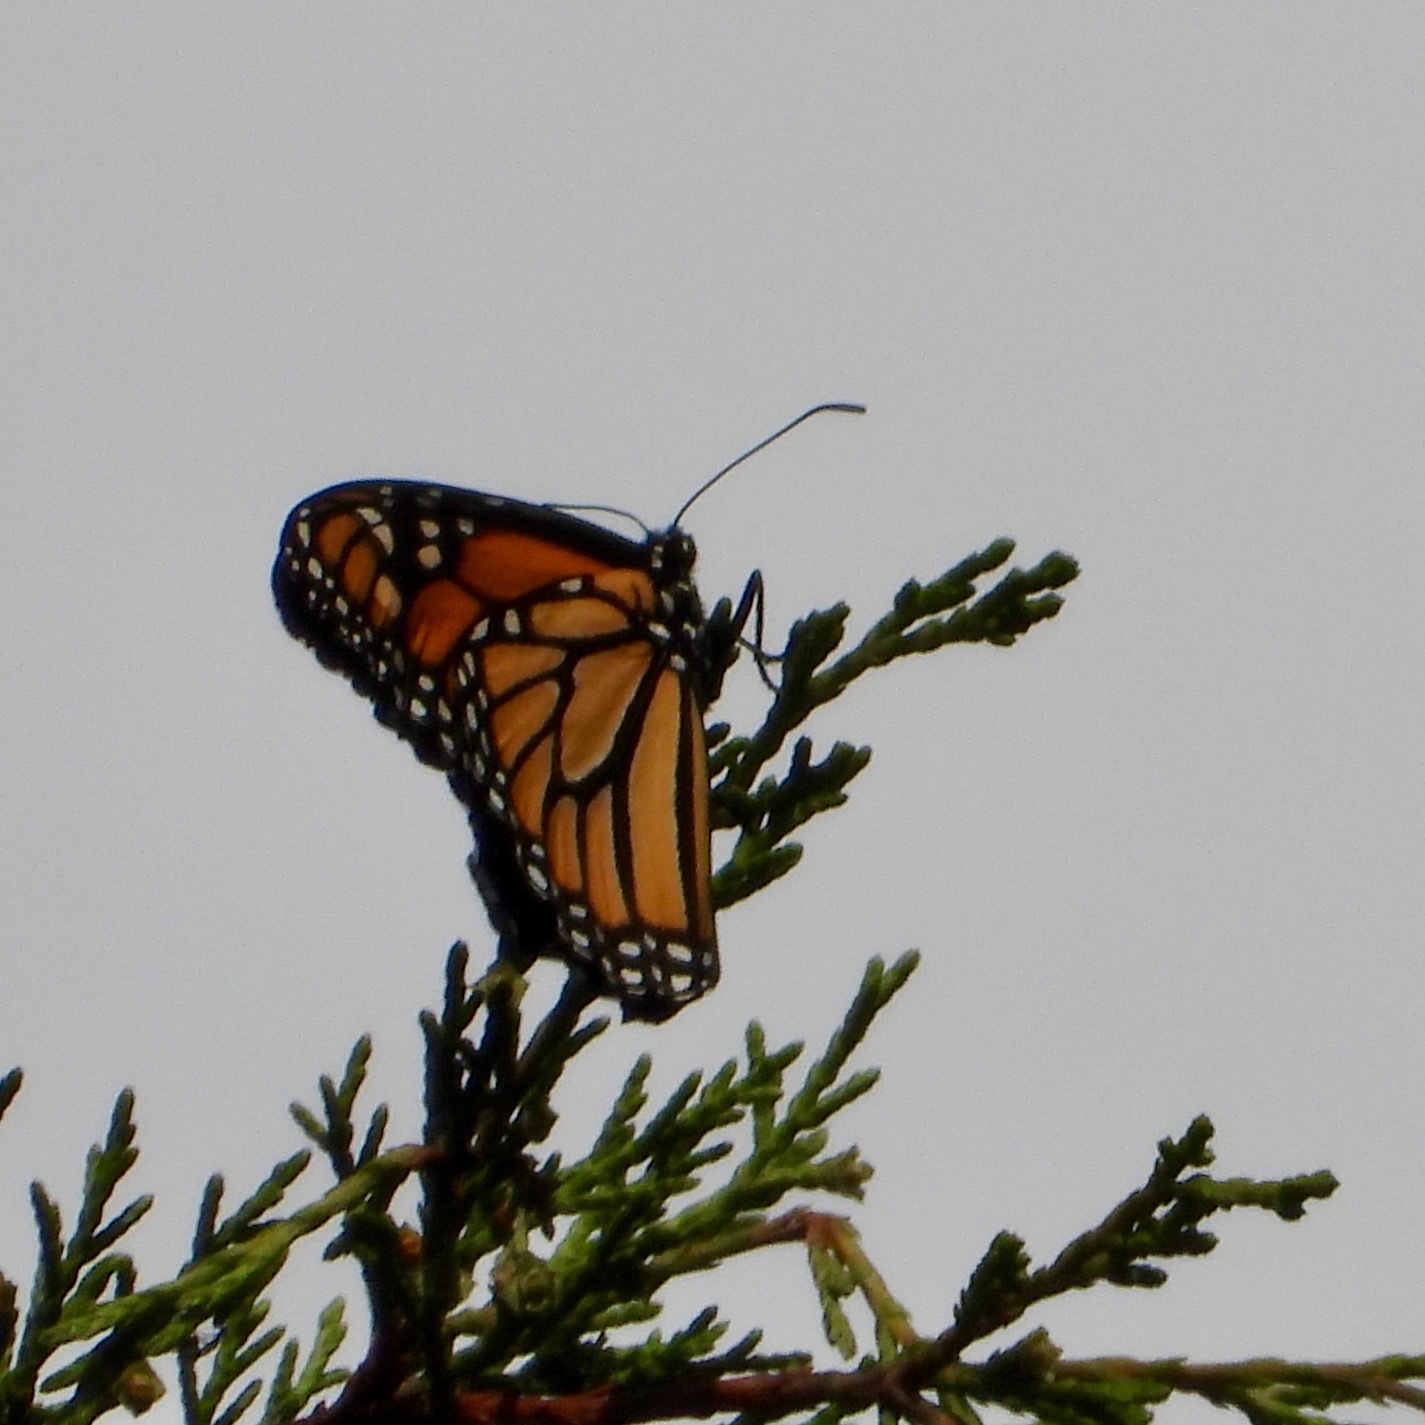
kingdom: Animalia
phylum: Arthropoda
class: Insecta
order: Lepidoptera
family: Nymphalidae
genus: Danaus
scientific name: Danaus plexippus
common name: Monarch
